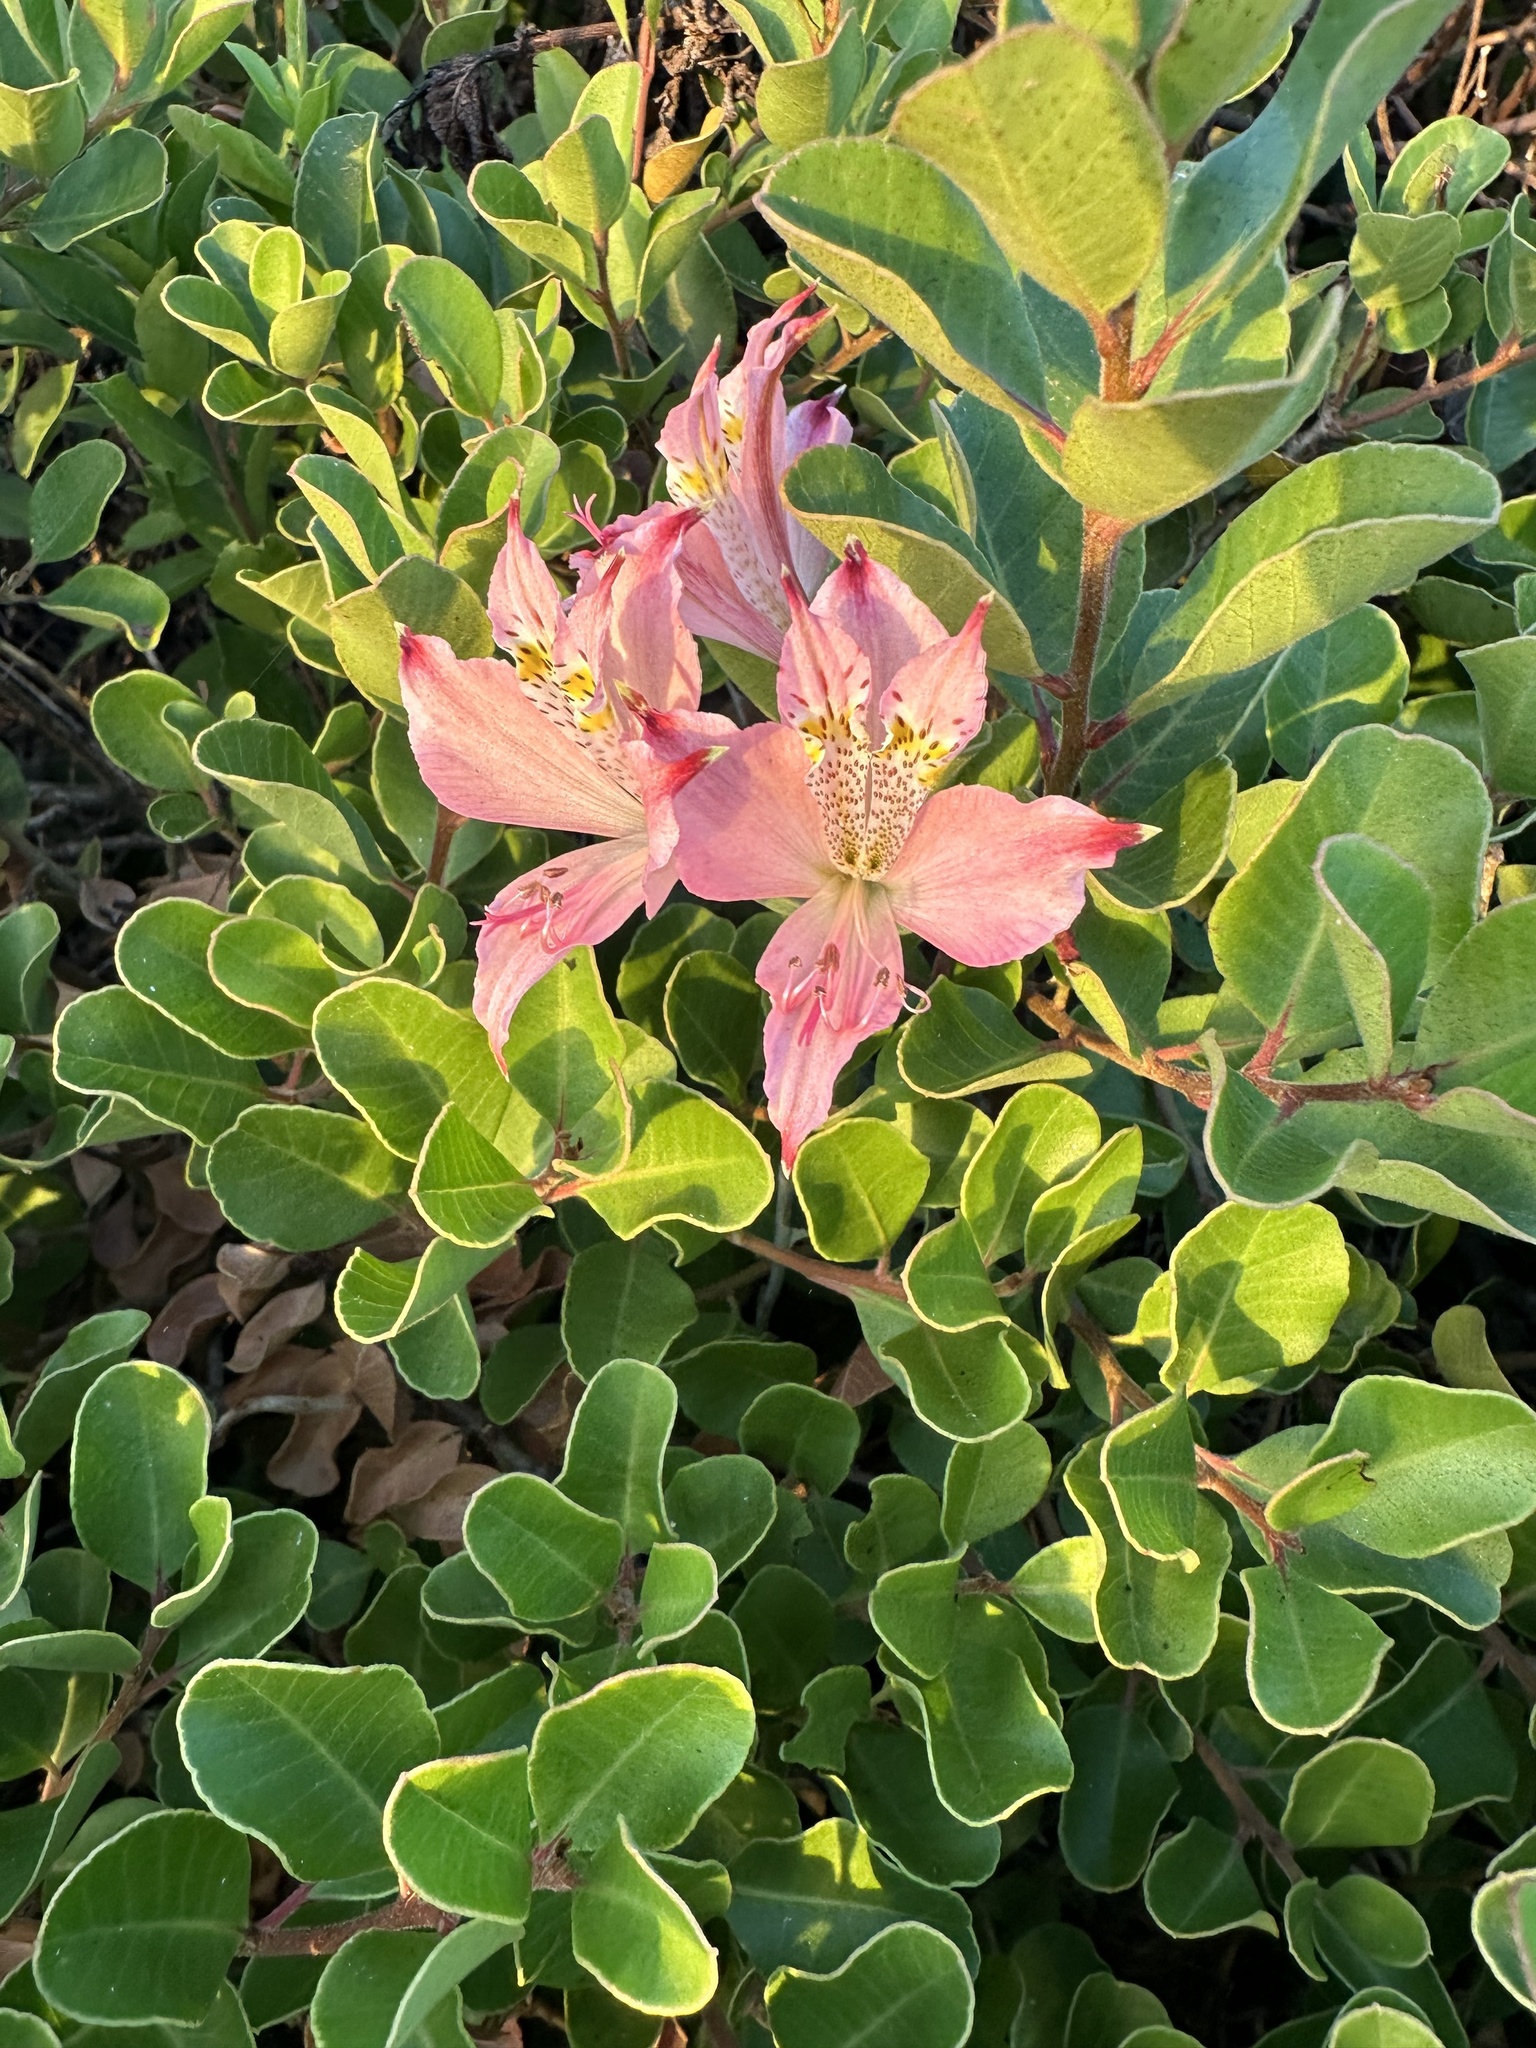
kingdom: Plantae
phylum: Tracheophyta
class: Liliopsida
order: Liliales
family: Alstroemeriaceae
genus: Alstroemeria
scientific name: Alstroemeria hookeri
